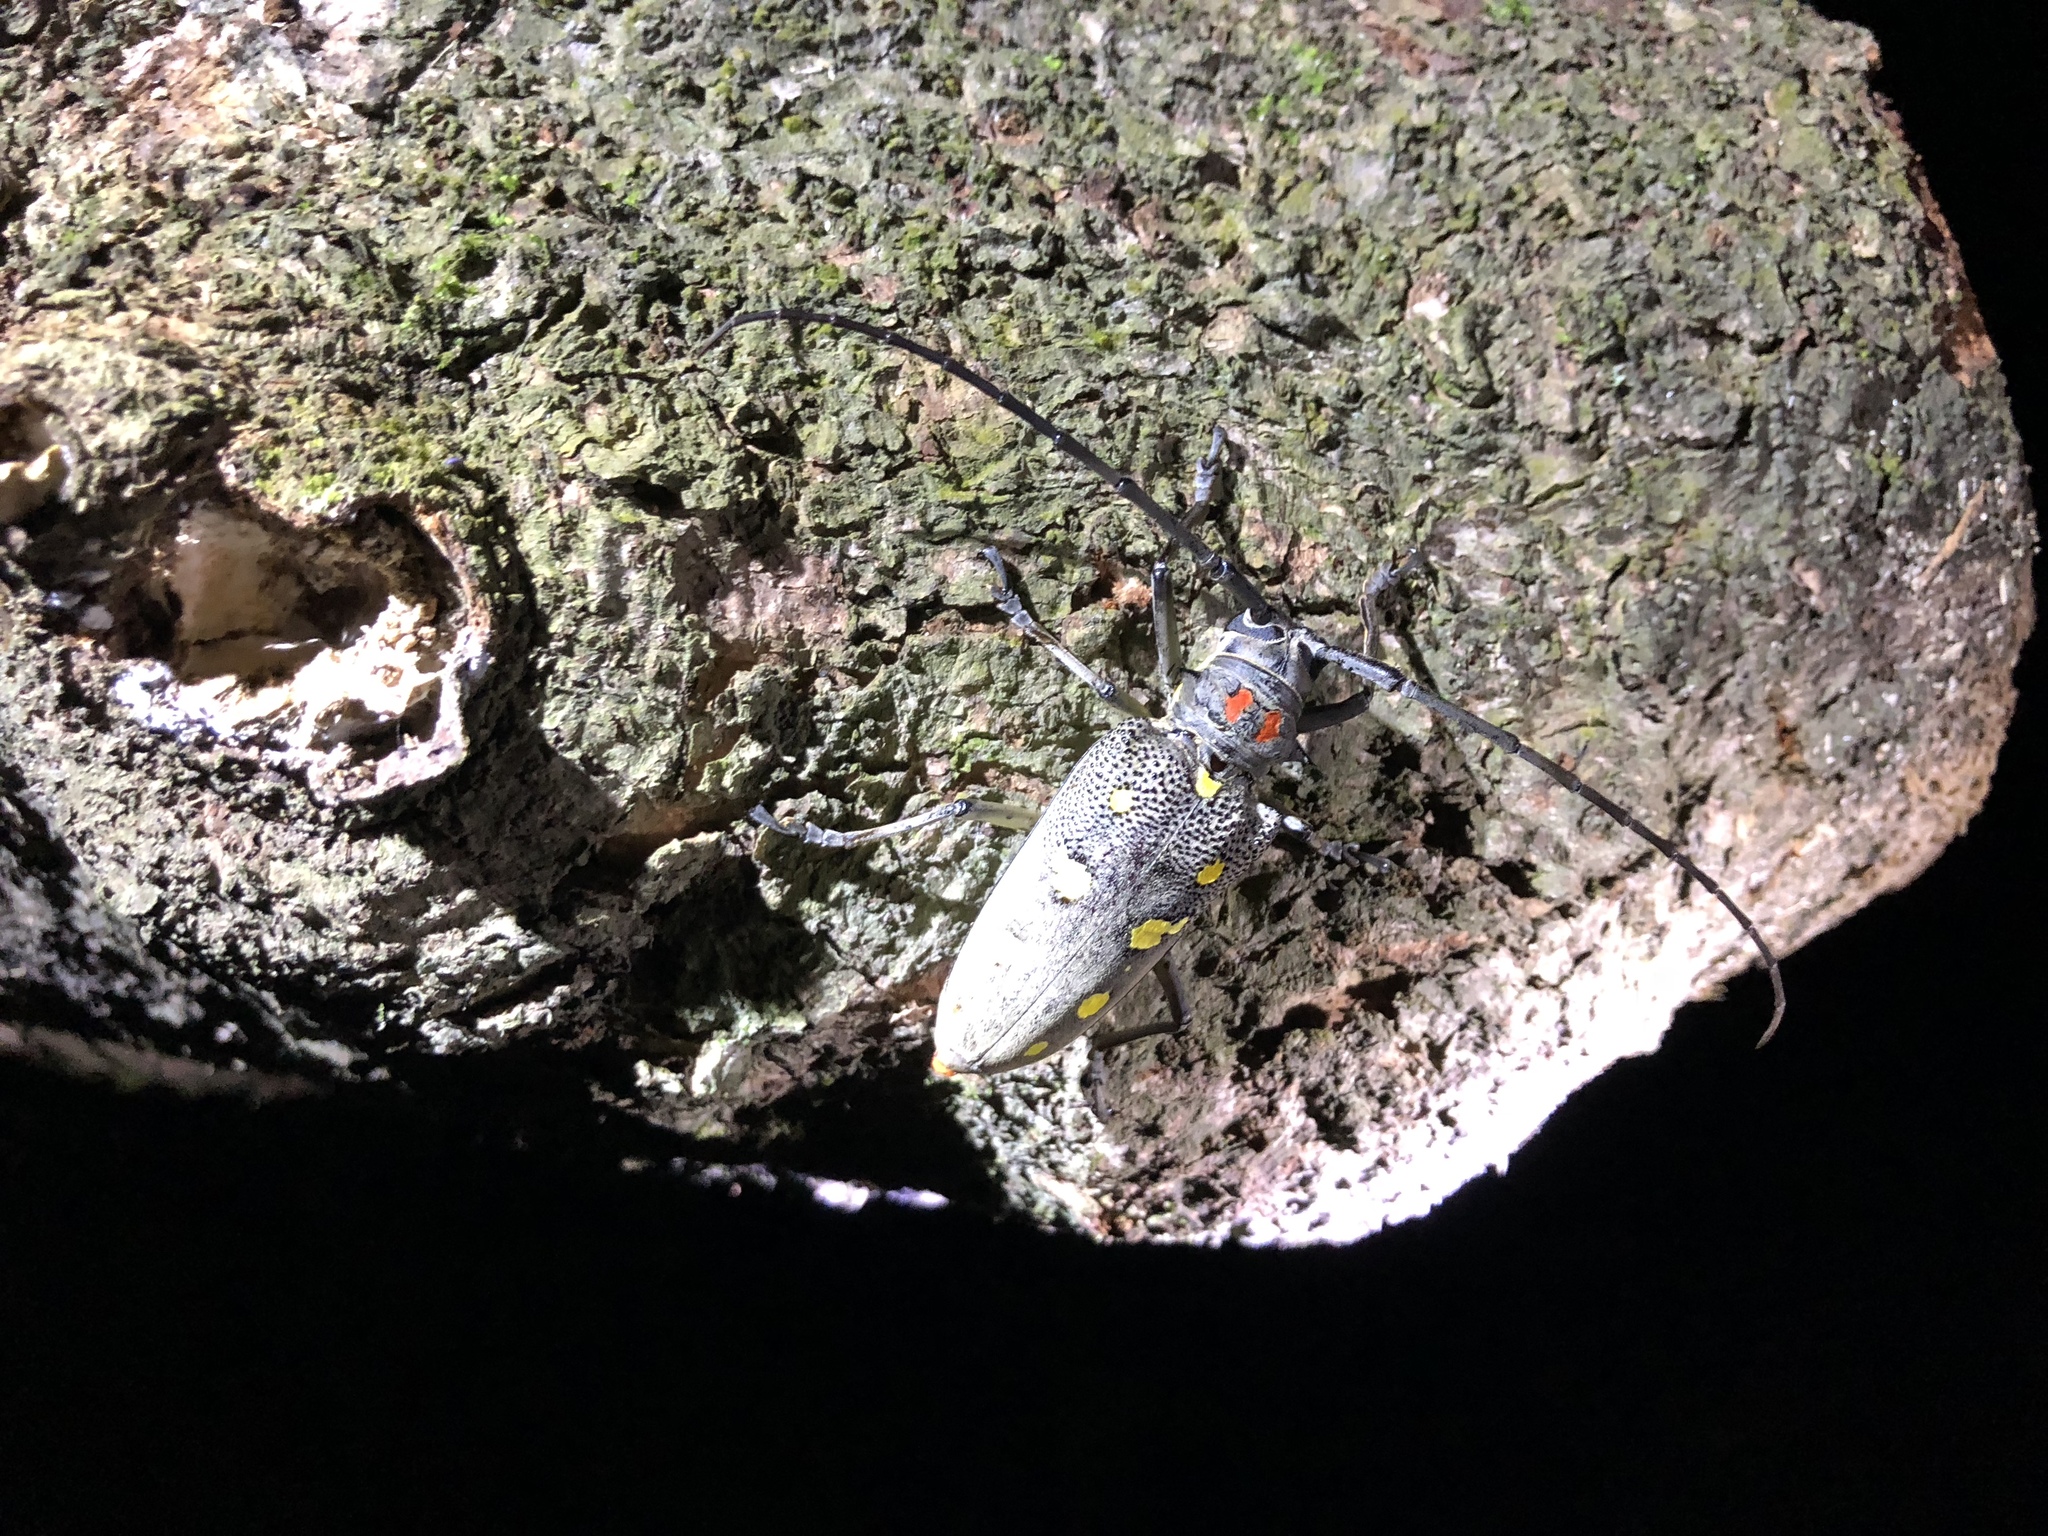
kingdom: Animalia
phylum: Arthropoda
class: Insecta
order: Coleoptera
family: Cerambycidae
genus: Batocera
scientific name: Batocera rubus
